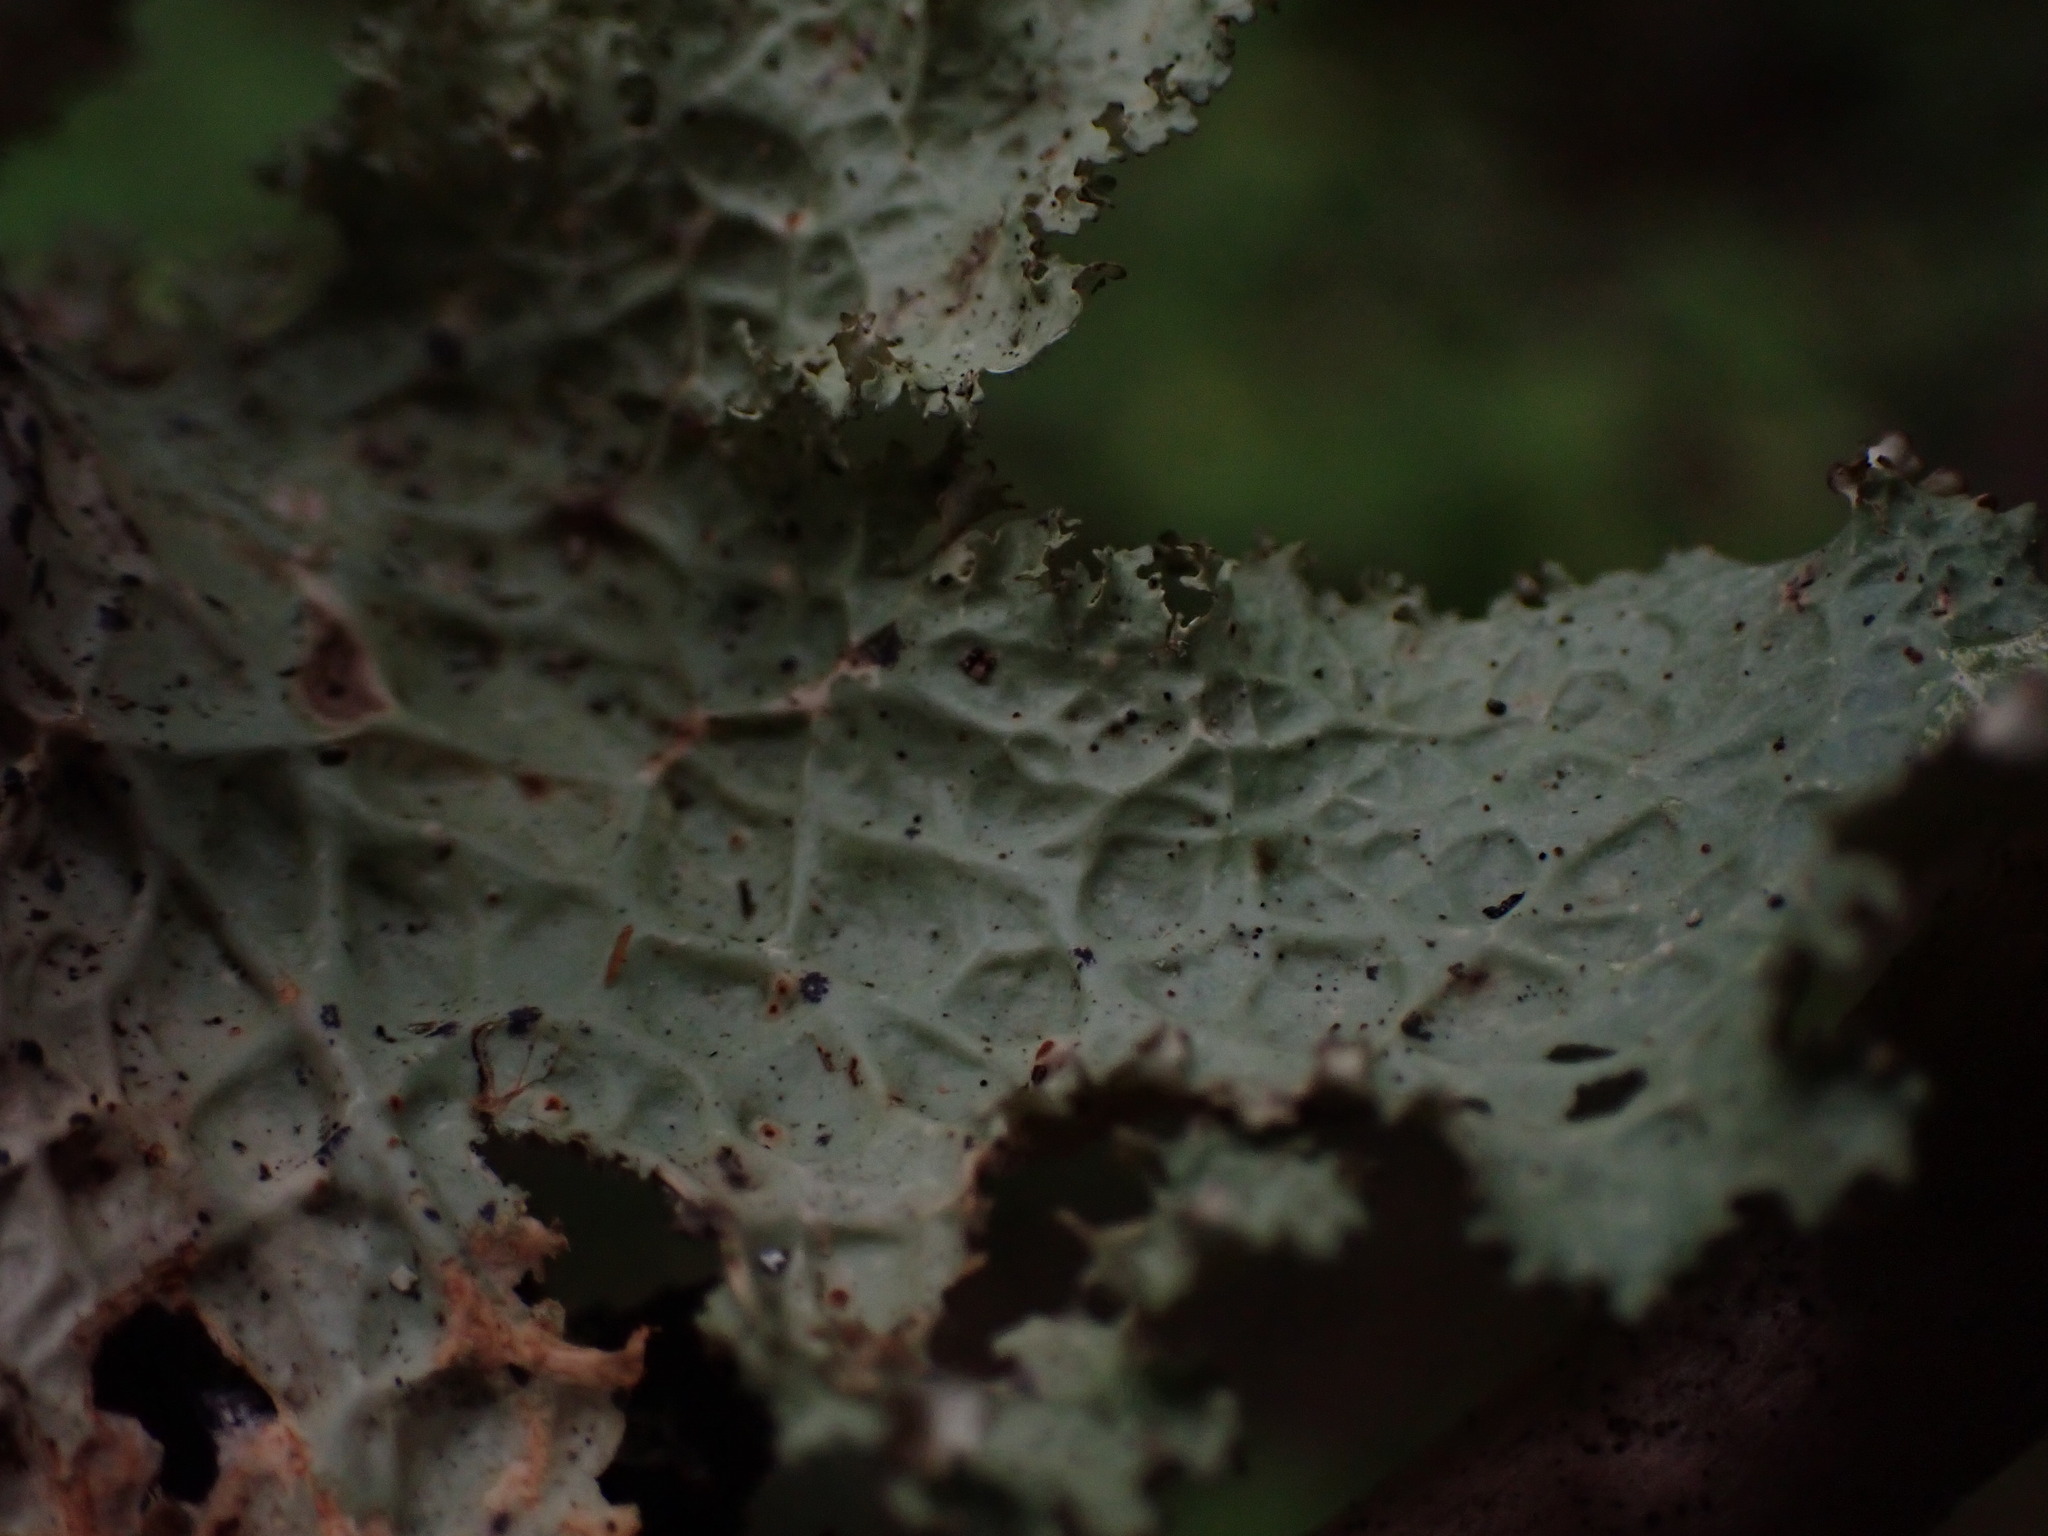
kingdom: Fungi
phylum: Ascomycota
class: Lecanoromycetes
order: Peltigerales
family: Lobariaceae
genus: Lobaria
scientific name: Lobaria oregana
